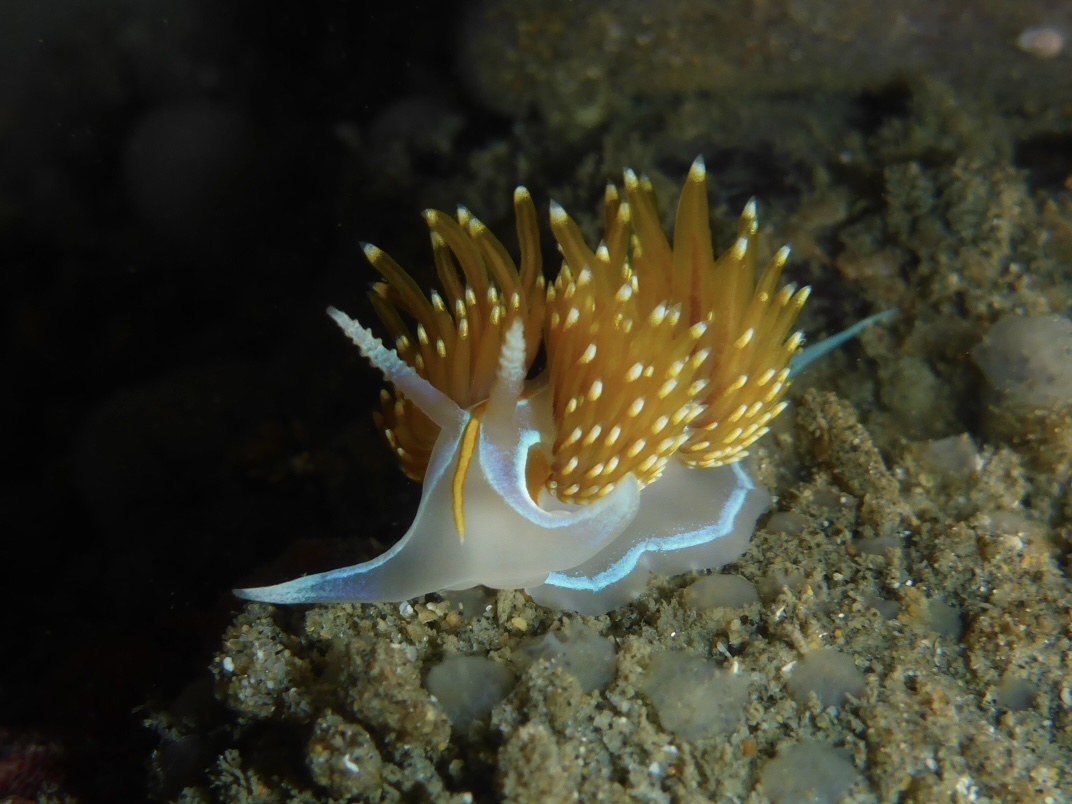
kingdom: Animalia
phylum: Mollusca
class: Gastropoda
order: Nudibranchia
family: Myrrhinidae
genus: Hermissenda
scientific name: Hermissenda opalescens
